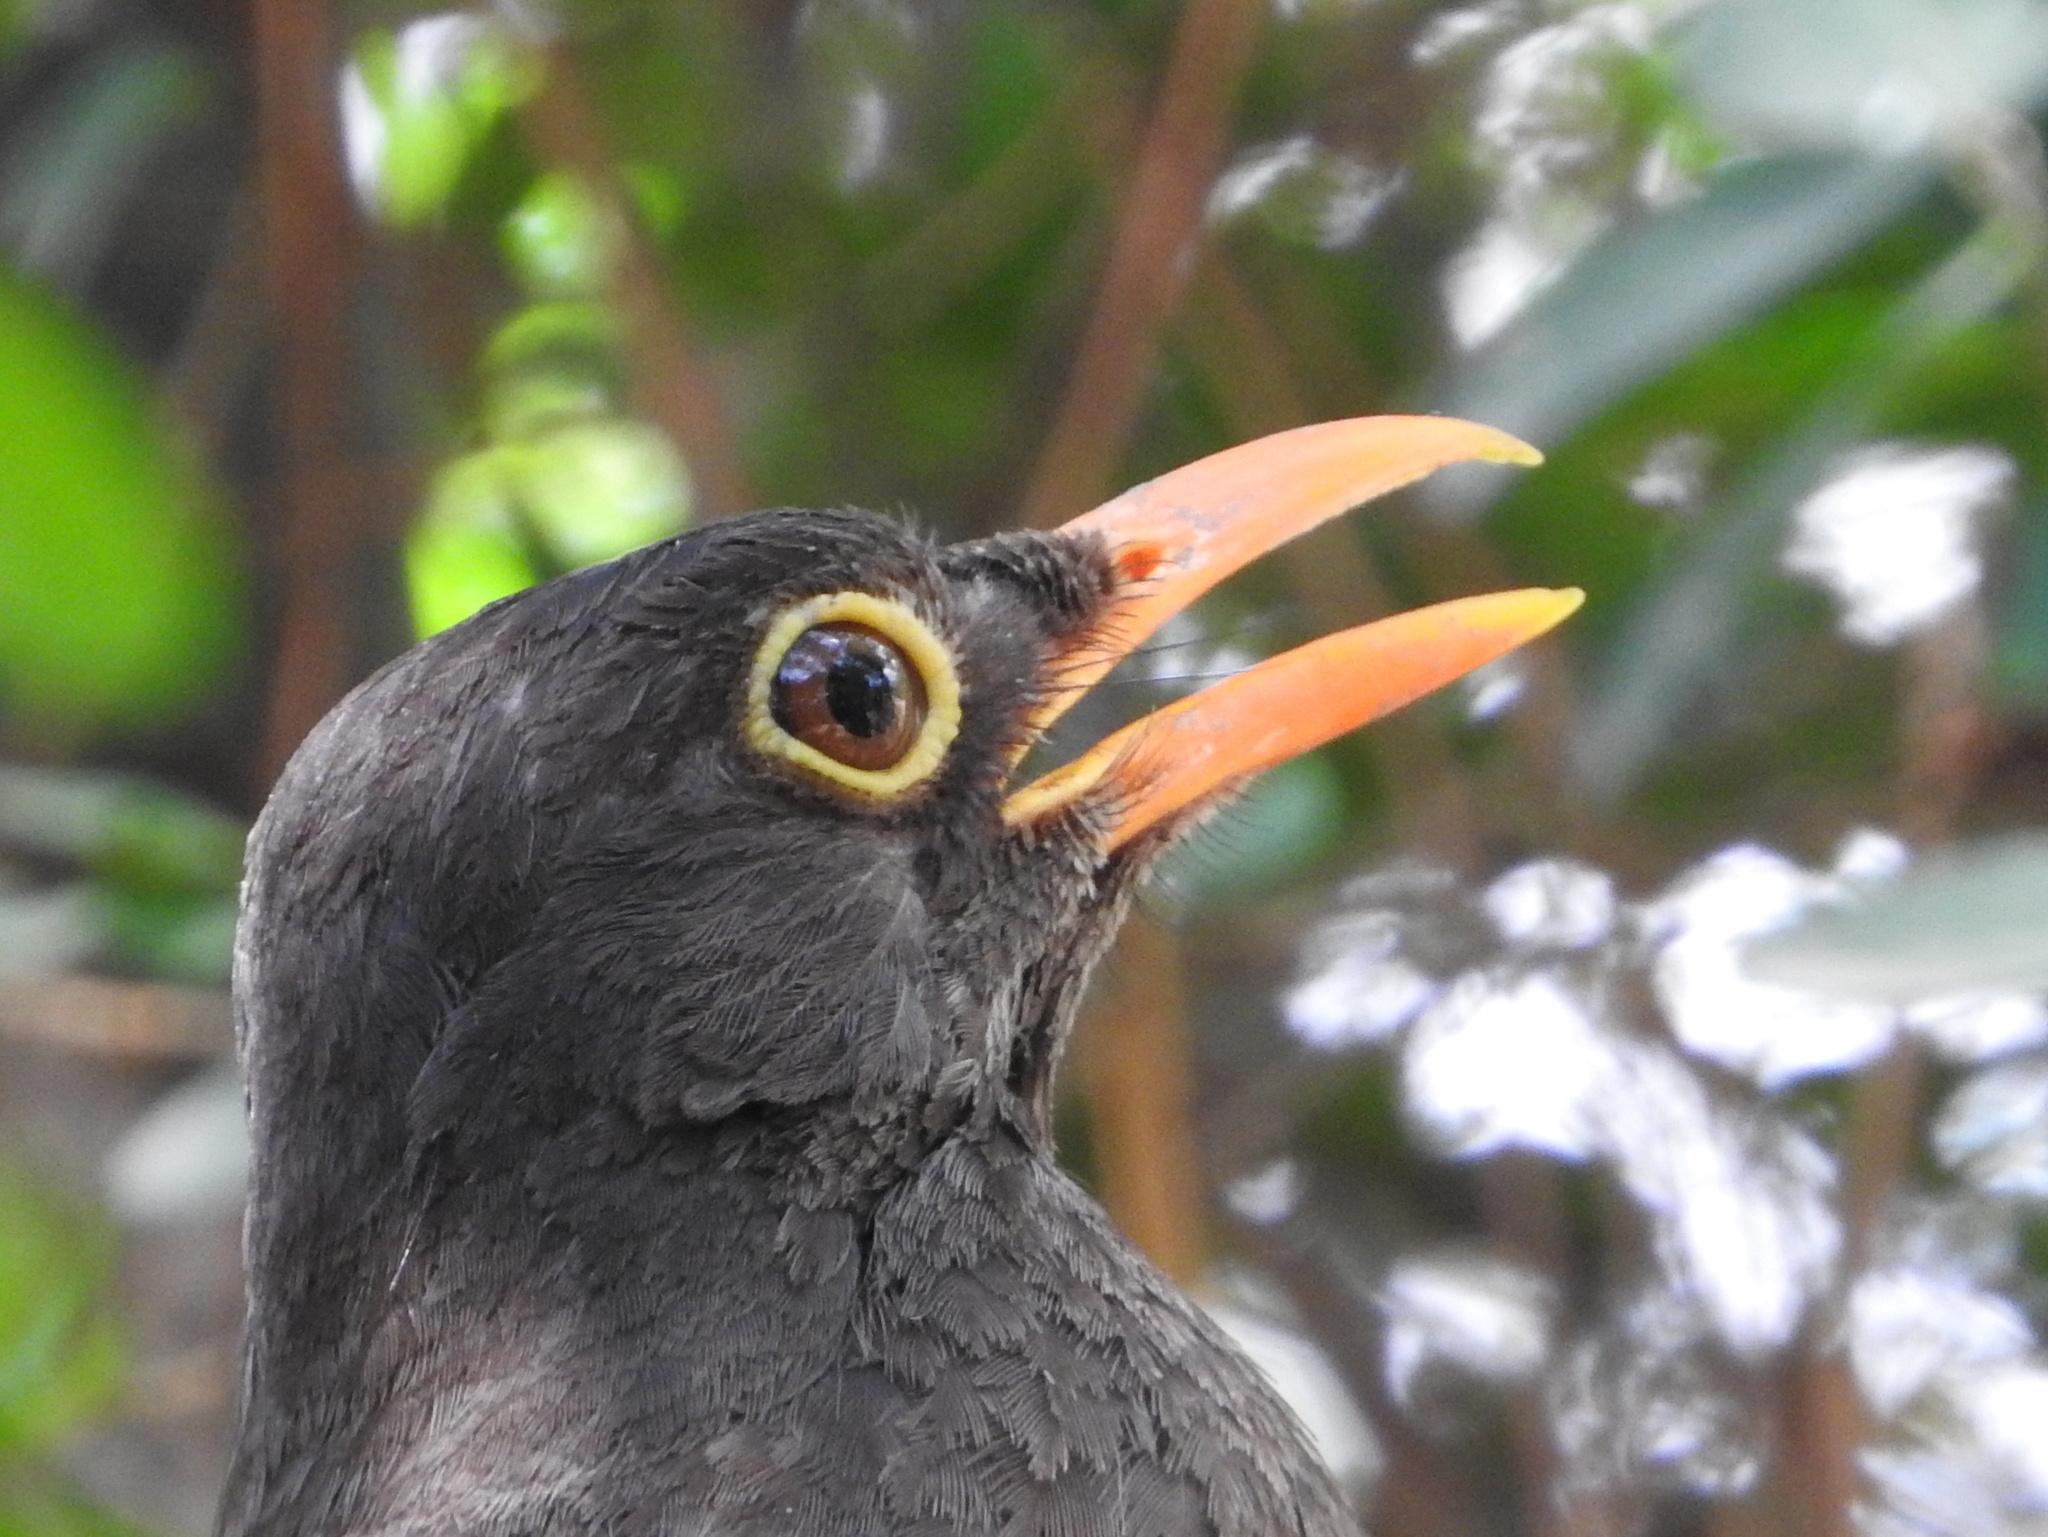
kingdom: Animalia
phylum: Chordata
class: Aves
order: Passeriformes
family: Turdidae
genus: Turdus
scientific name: Turdus chiguanco
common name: Chiguanco thrush
